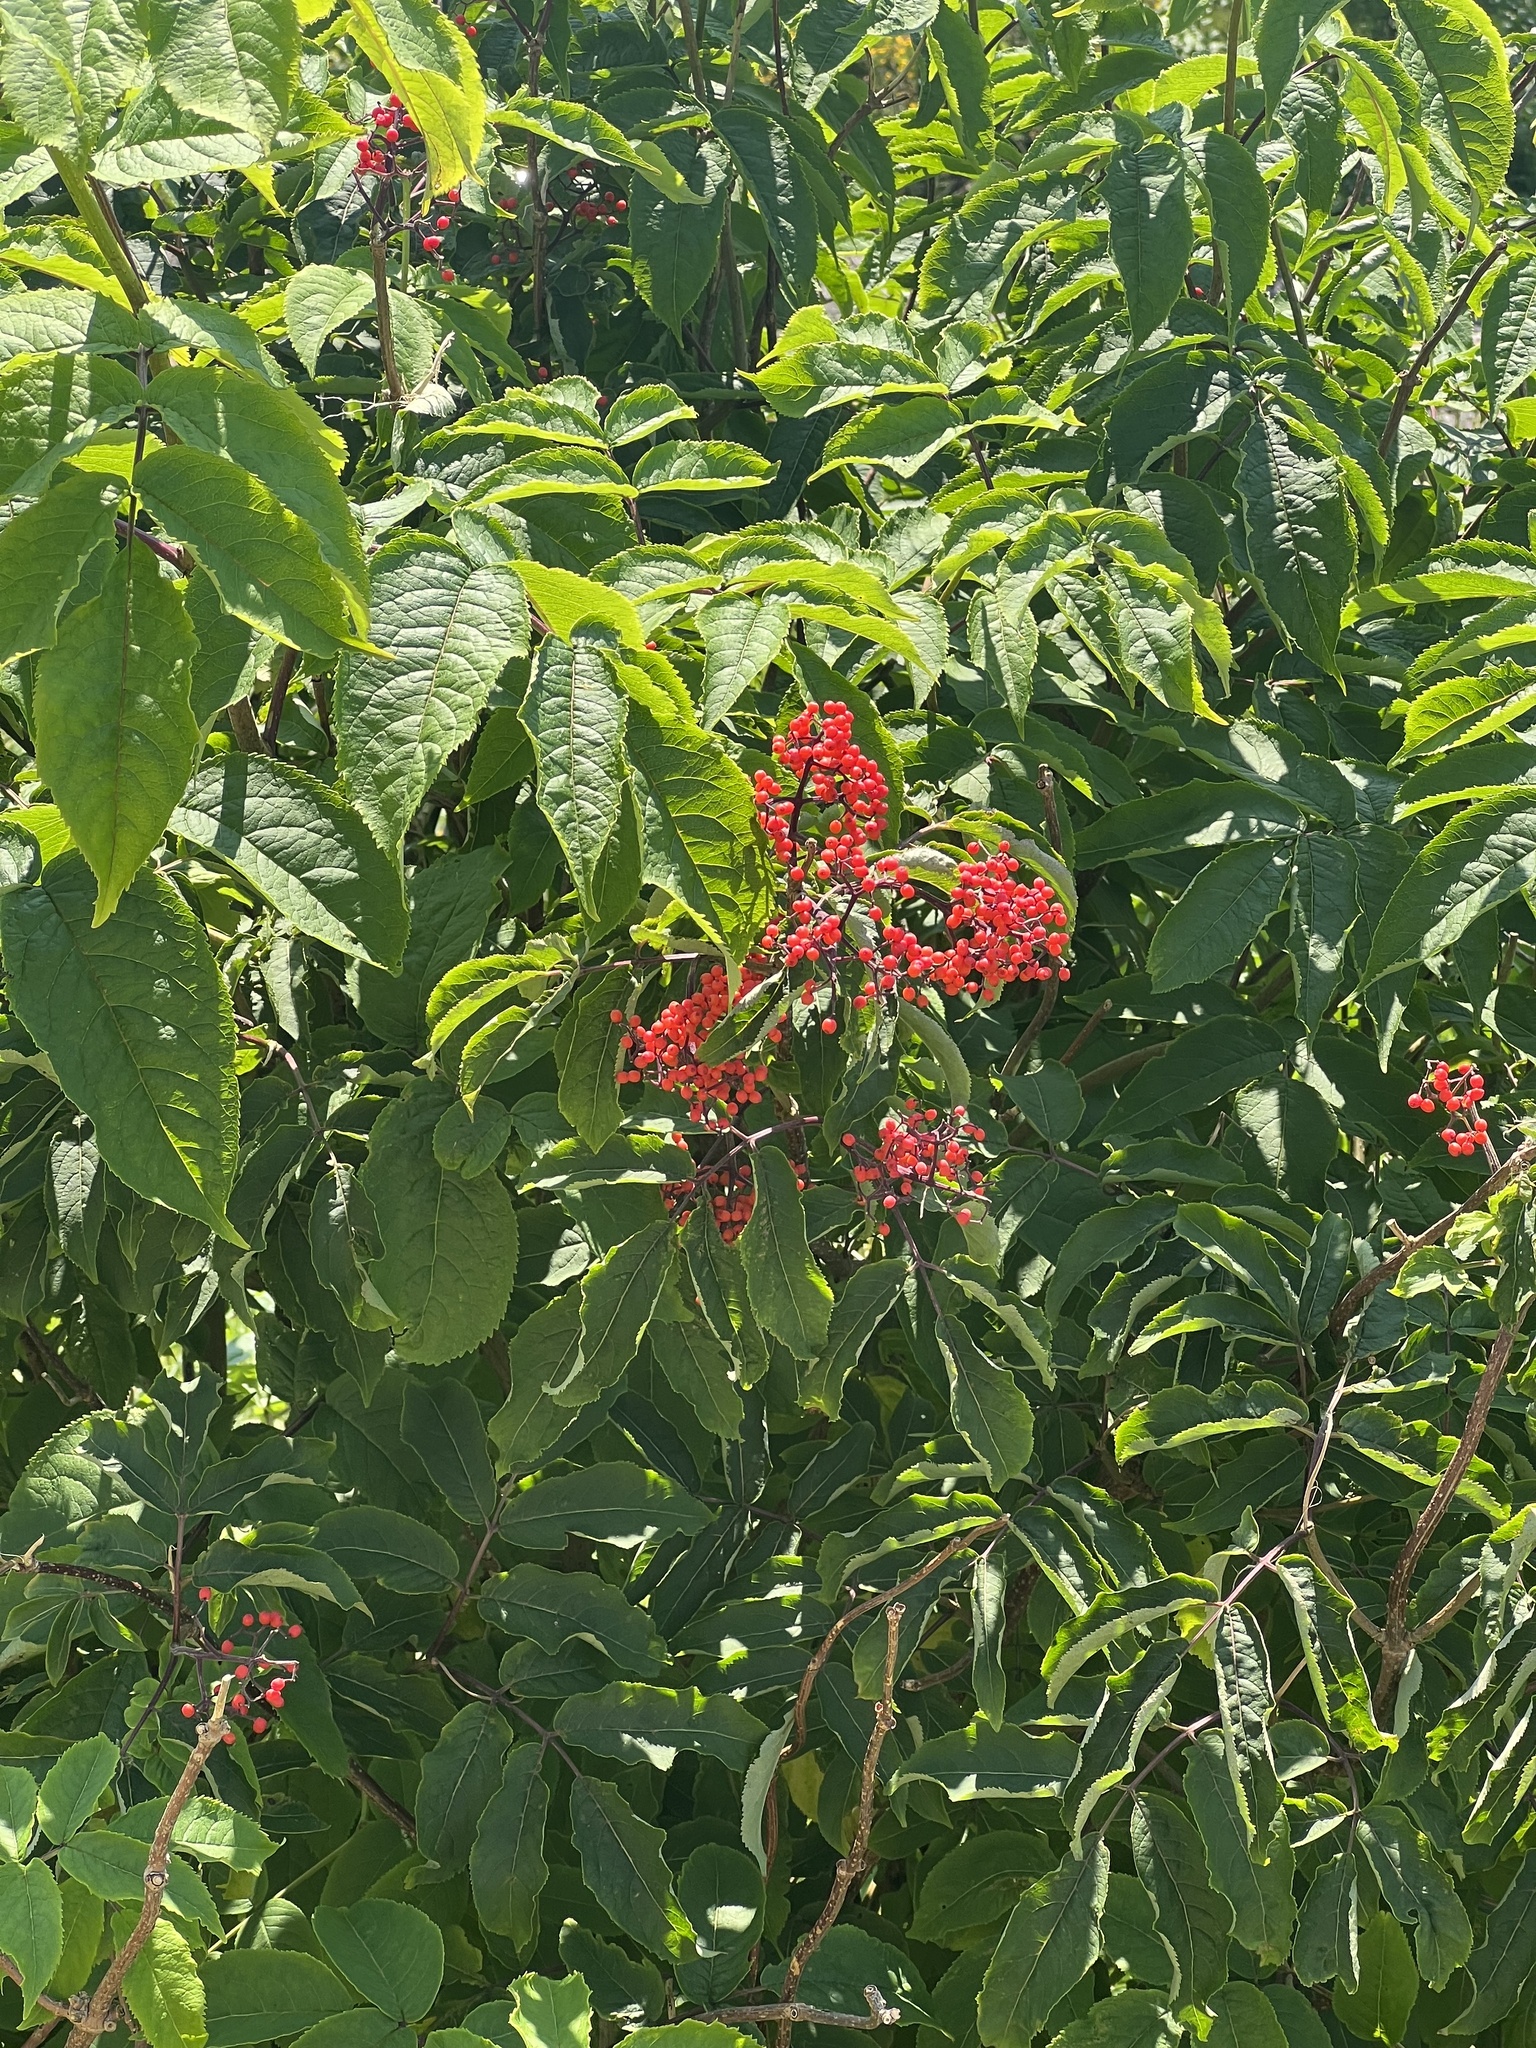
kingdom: Plantae
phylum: Tracheophyta
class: Magnoliopsida
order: Dipsacales
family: Viburnaceae
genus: Sambucus
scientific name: Sambucus racemosa
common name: Red-berried elder
